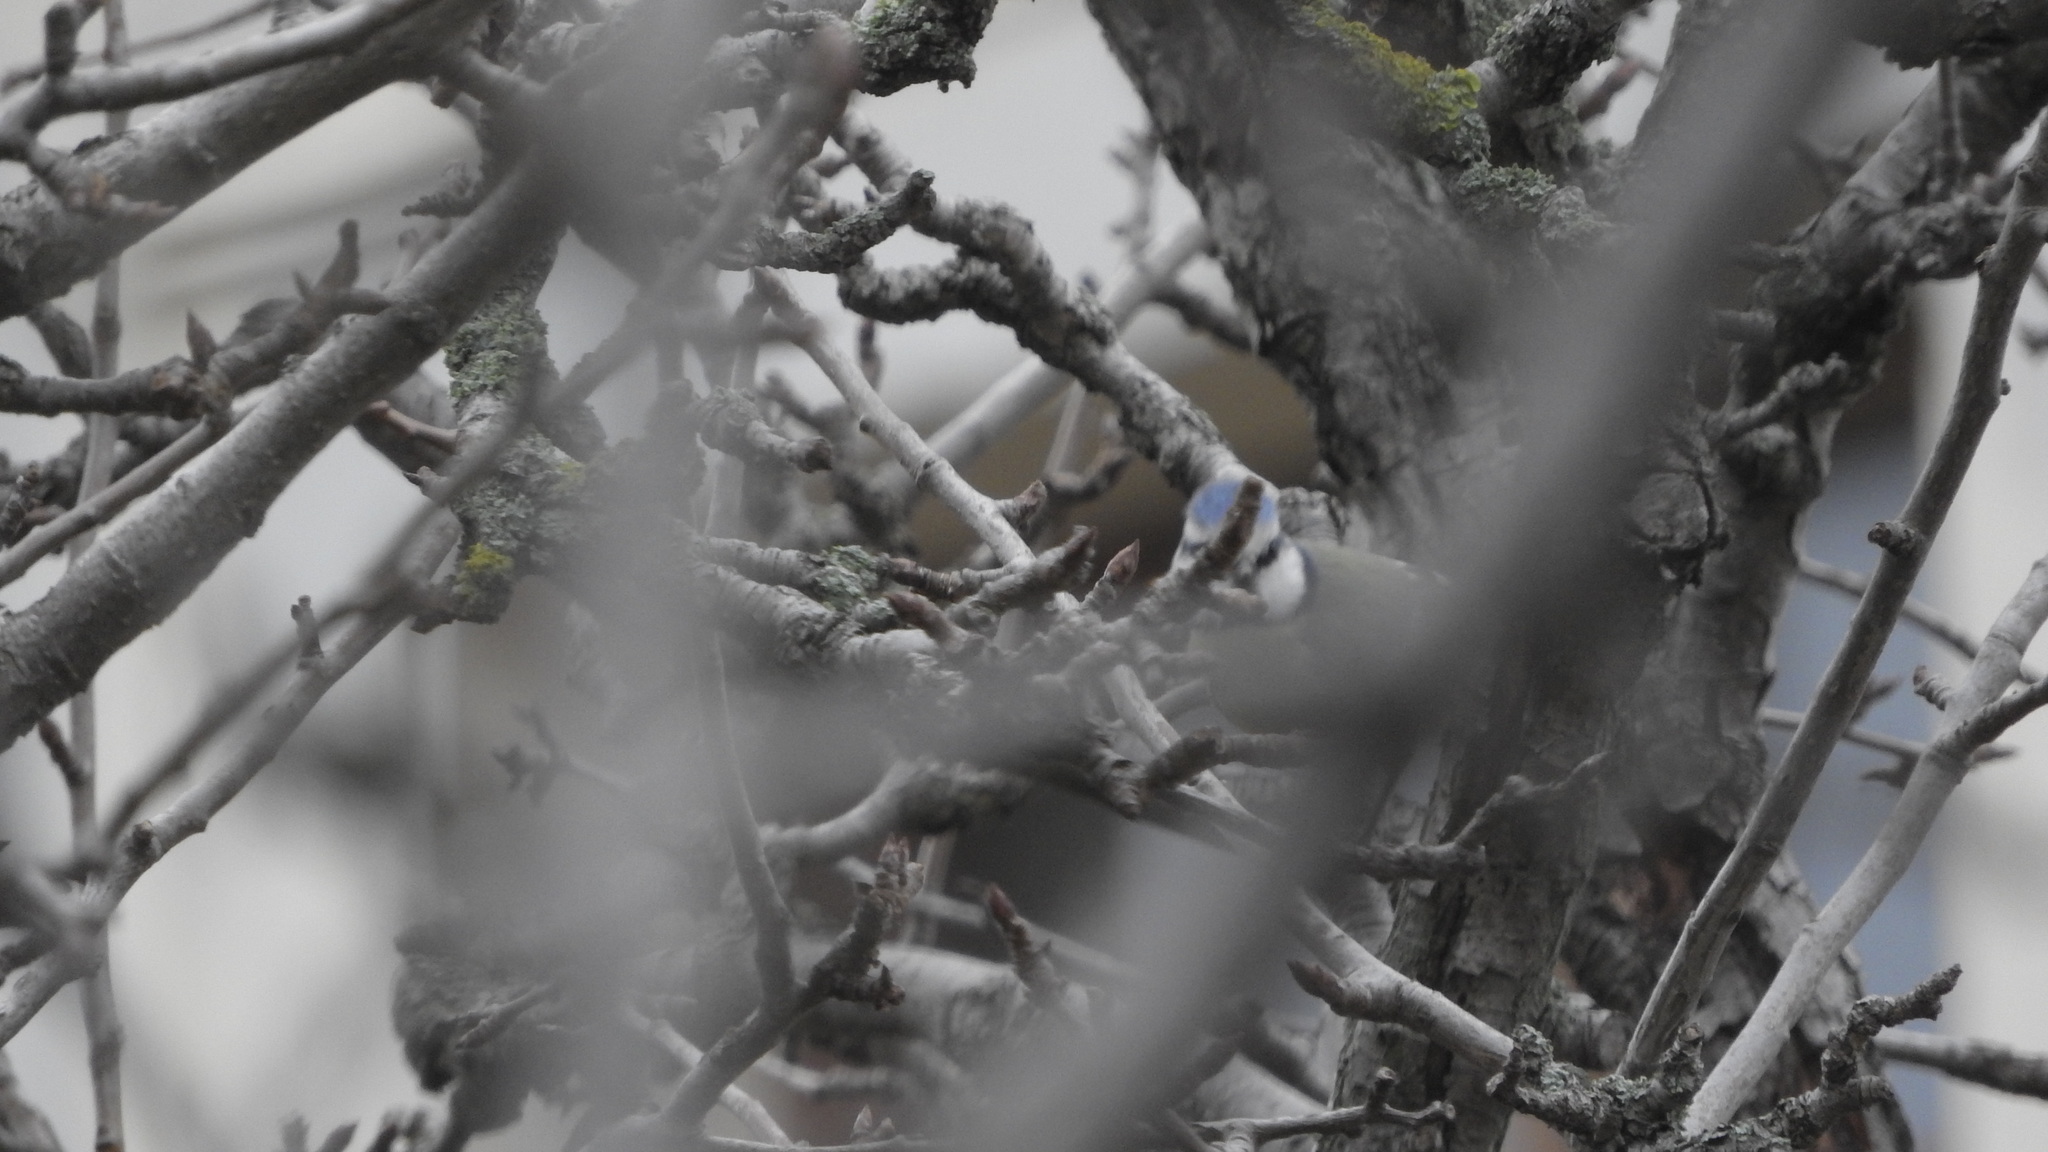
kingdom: Animalia
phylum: Chordata
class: Aves
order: Passeriformes
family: Paridae
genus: Cyanistes
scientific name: Cyanistes caeruleus
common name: Eurasian blue tit
